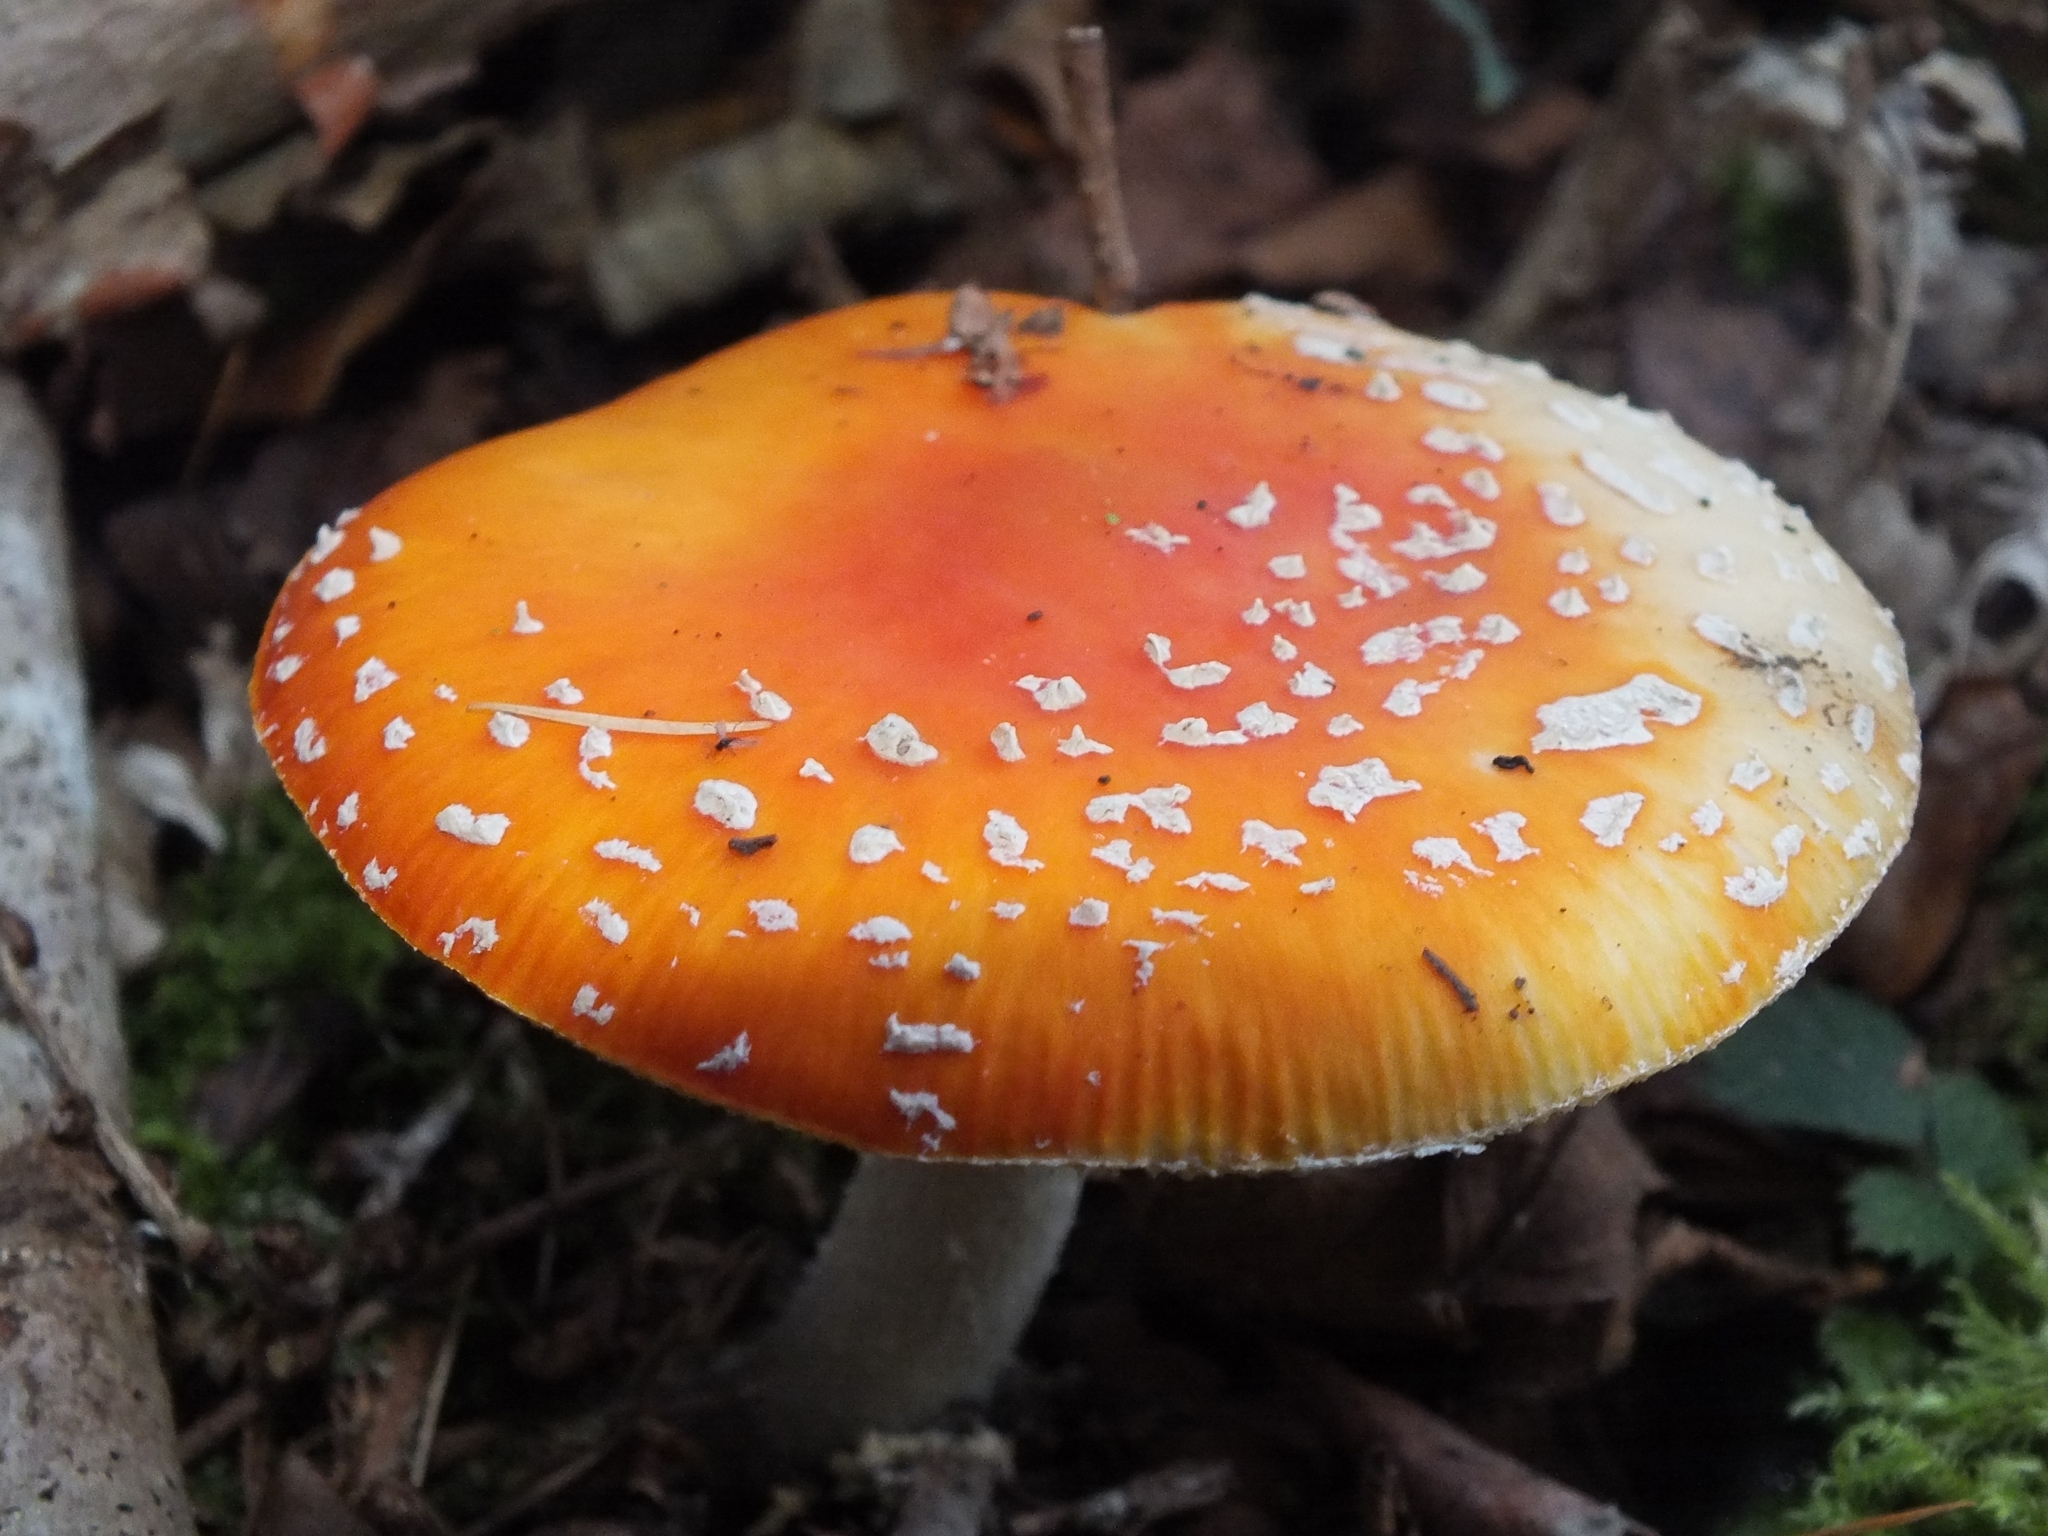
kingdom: Fungi
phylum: Basidiomycota
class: Agaricomycetes
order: Agaricales
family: Amanitaceae
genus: Amanita
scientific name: Amanita muscaria
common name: Fly agaric
